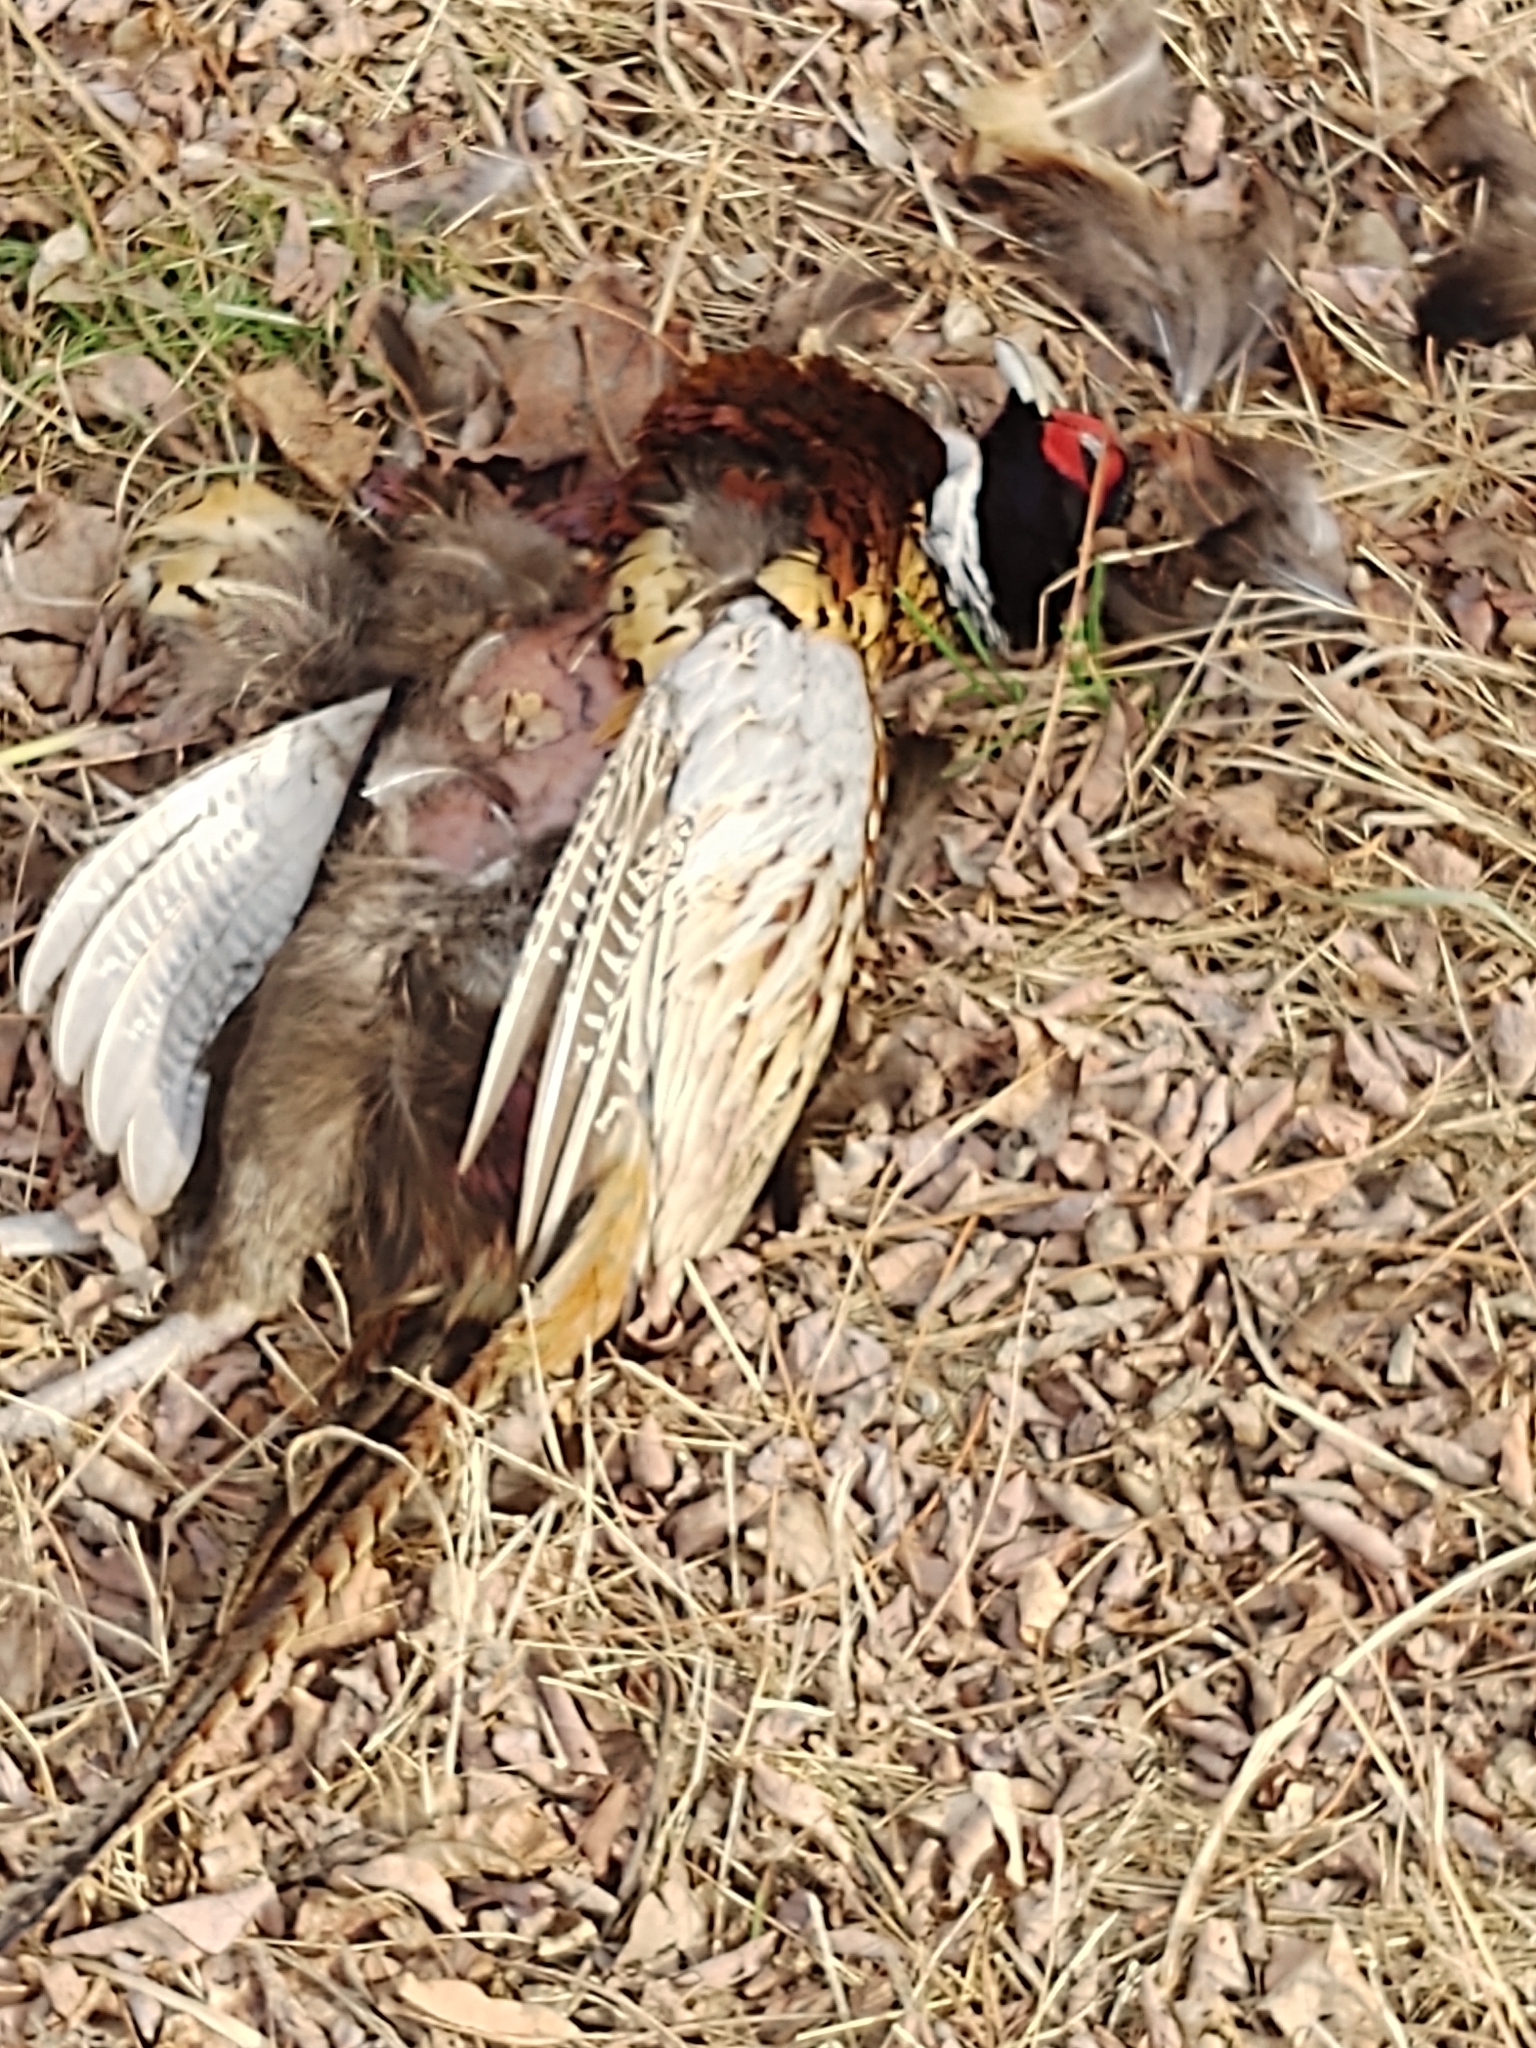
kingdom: Animalia
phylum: Chordata
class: Aves
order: Galliformes
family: Phasianidae
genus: Phasianus
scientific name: Phasianus colchicus
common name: Common pheasant
